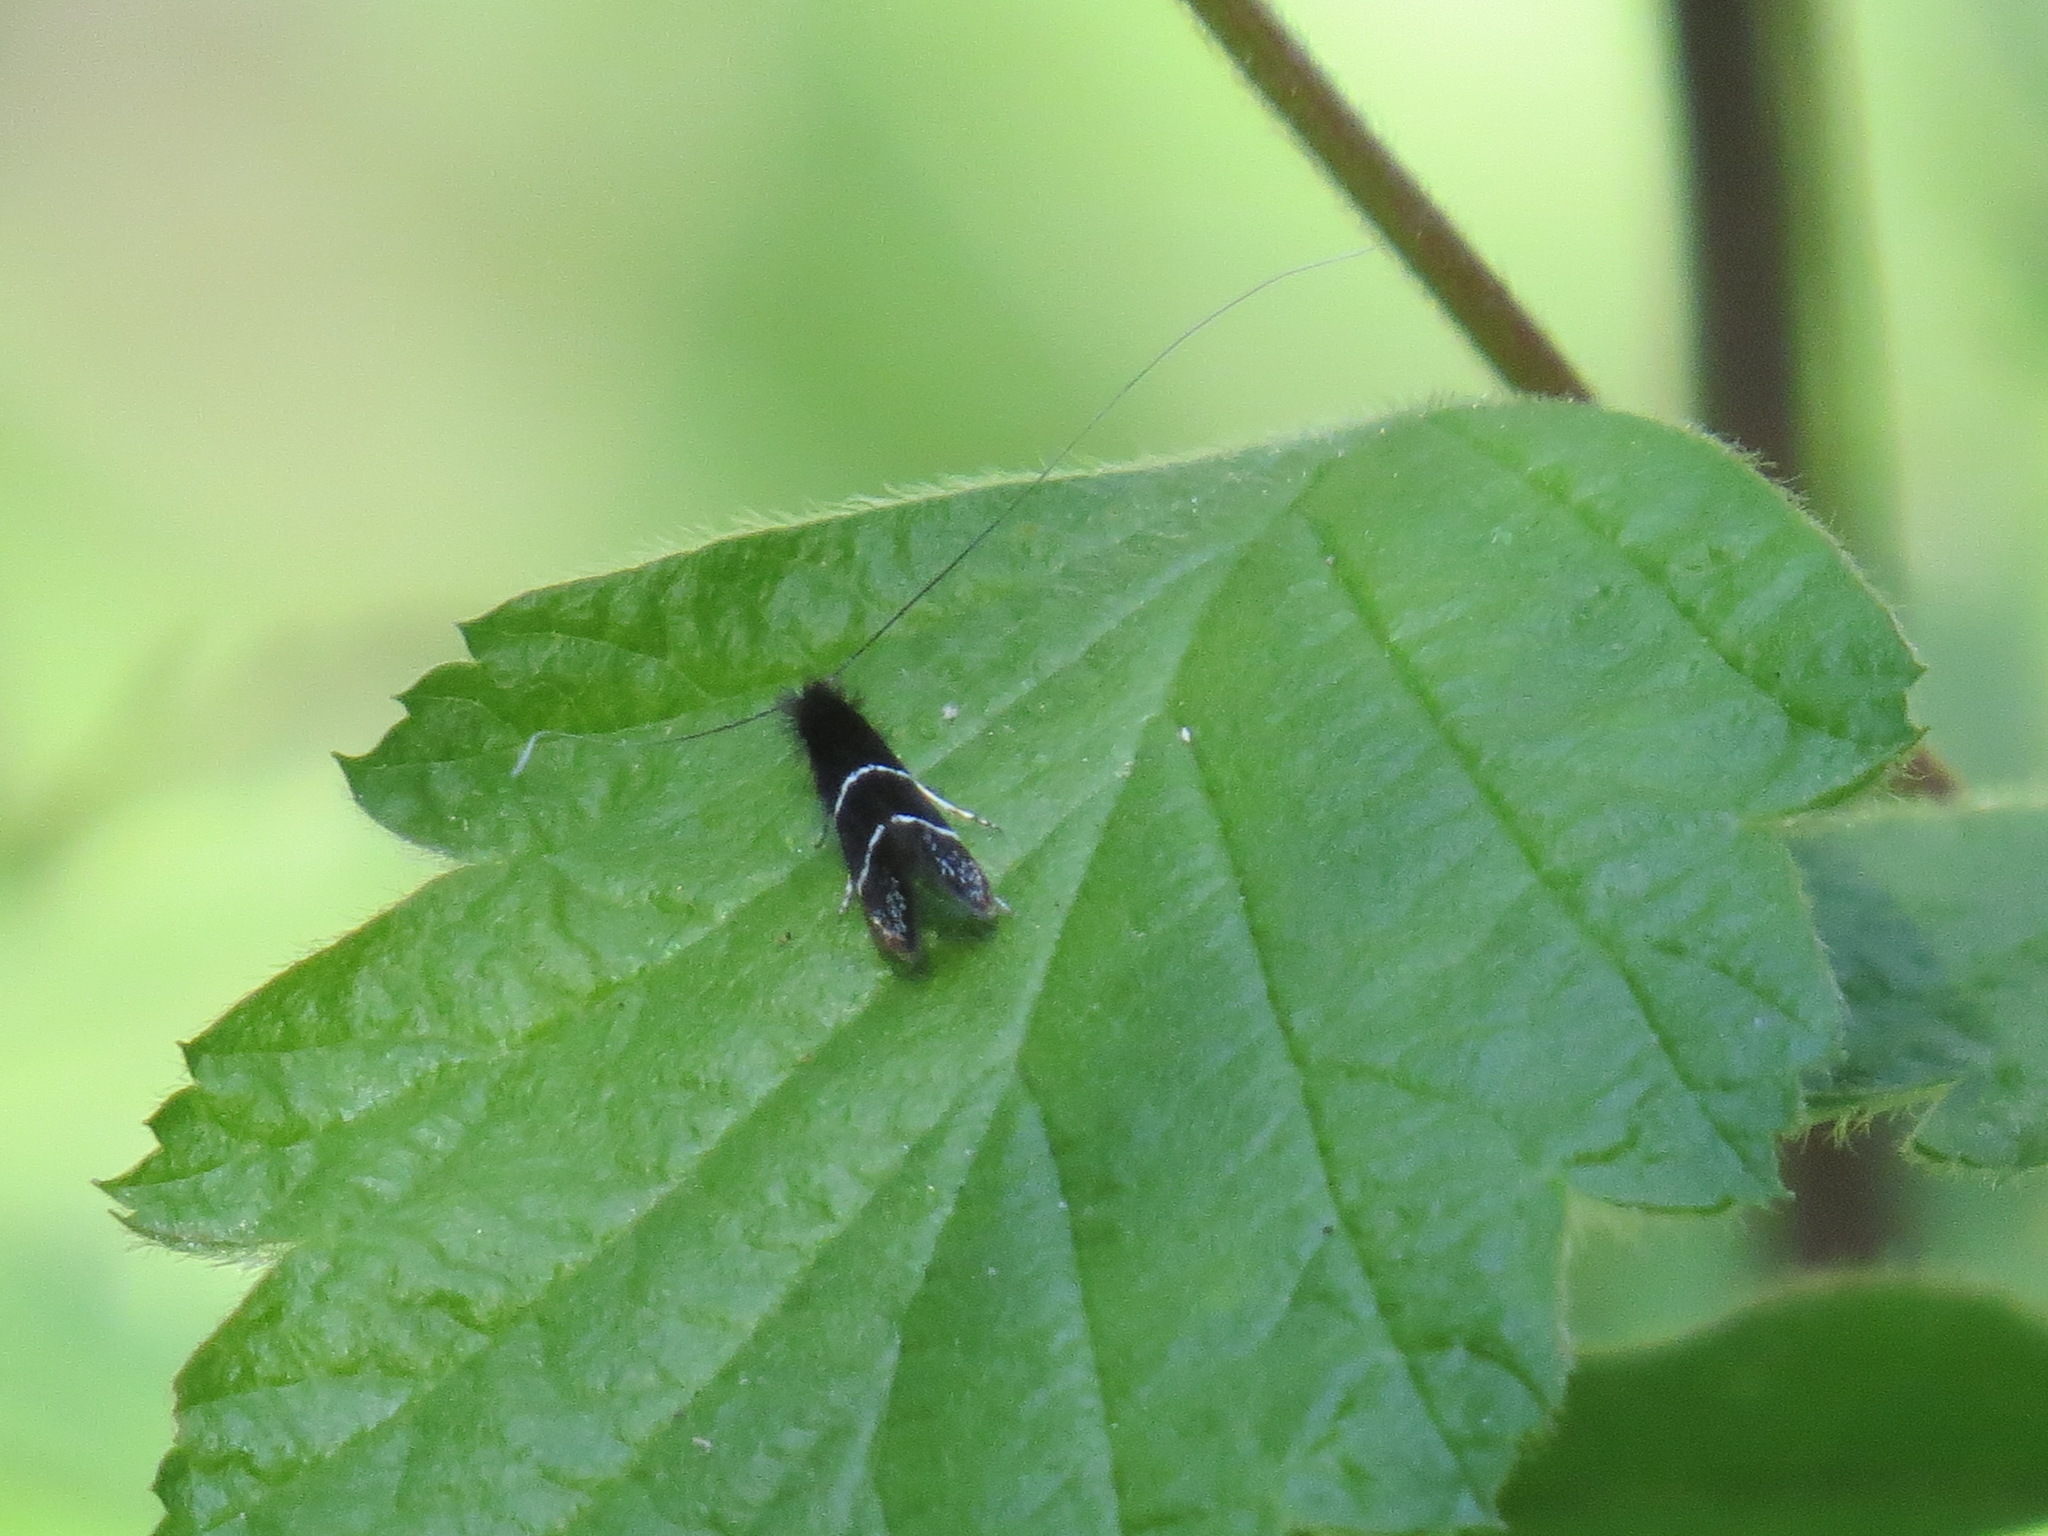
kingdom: Animalia
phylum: Arthropoda
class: Insecta
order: Lepidoptera
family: Adelidae
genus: Adela
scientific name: Adela septentrionella
